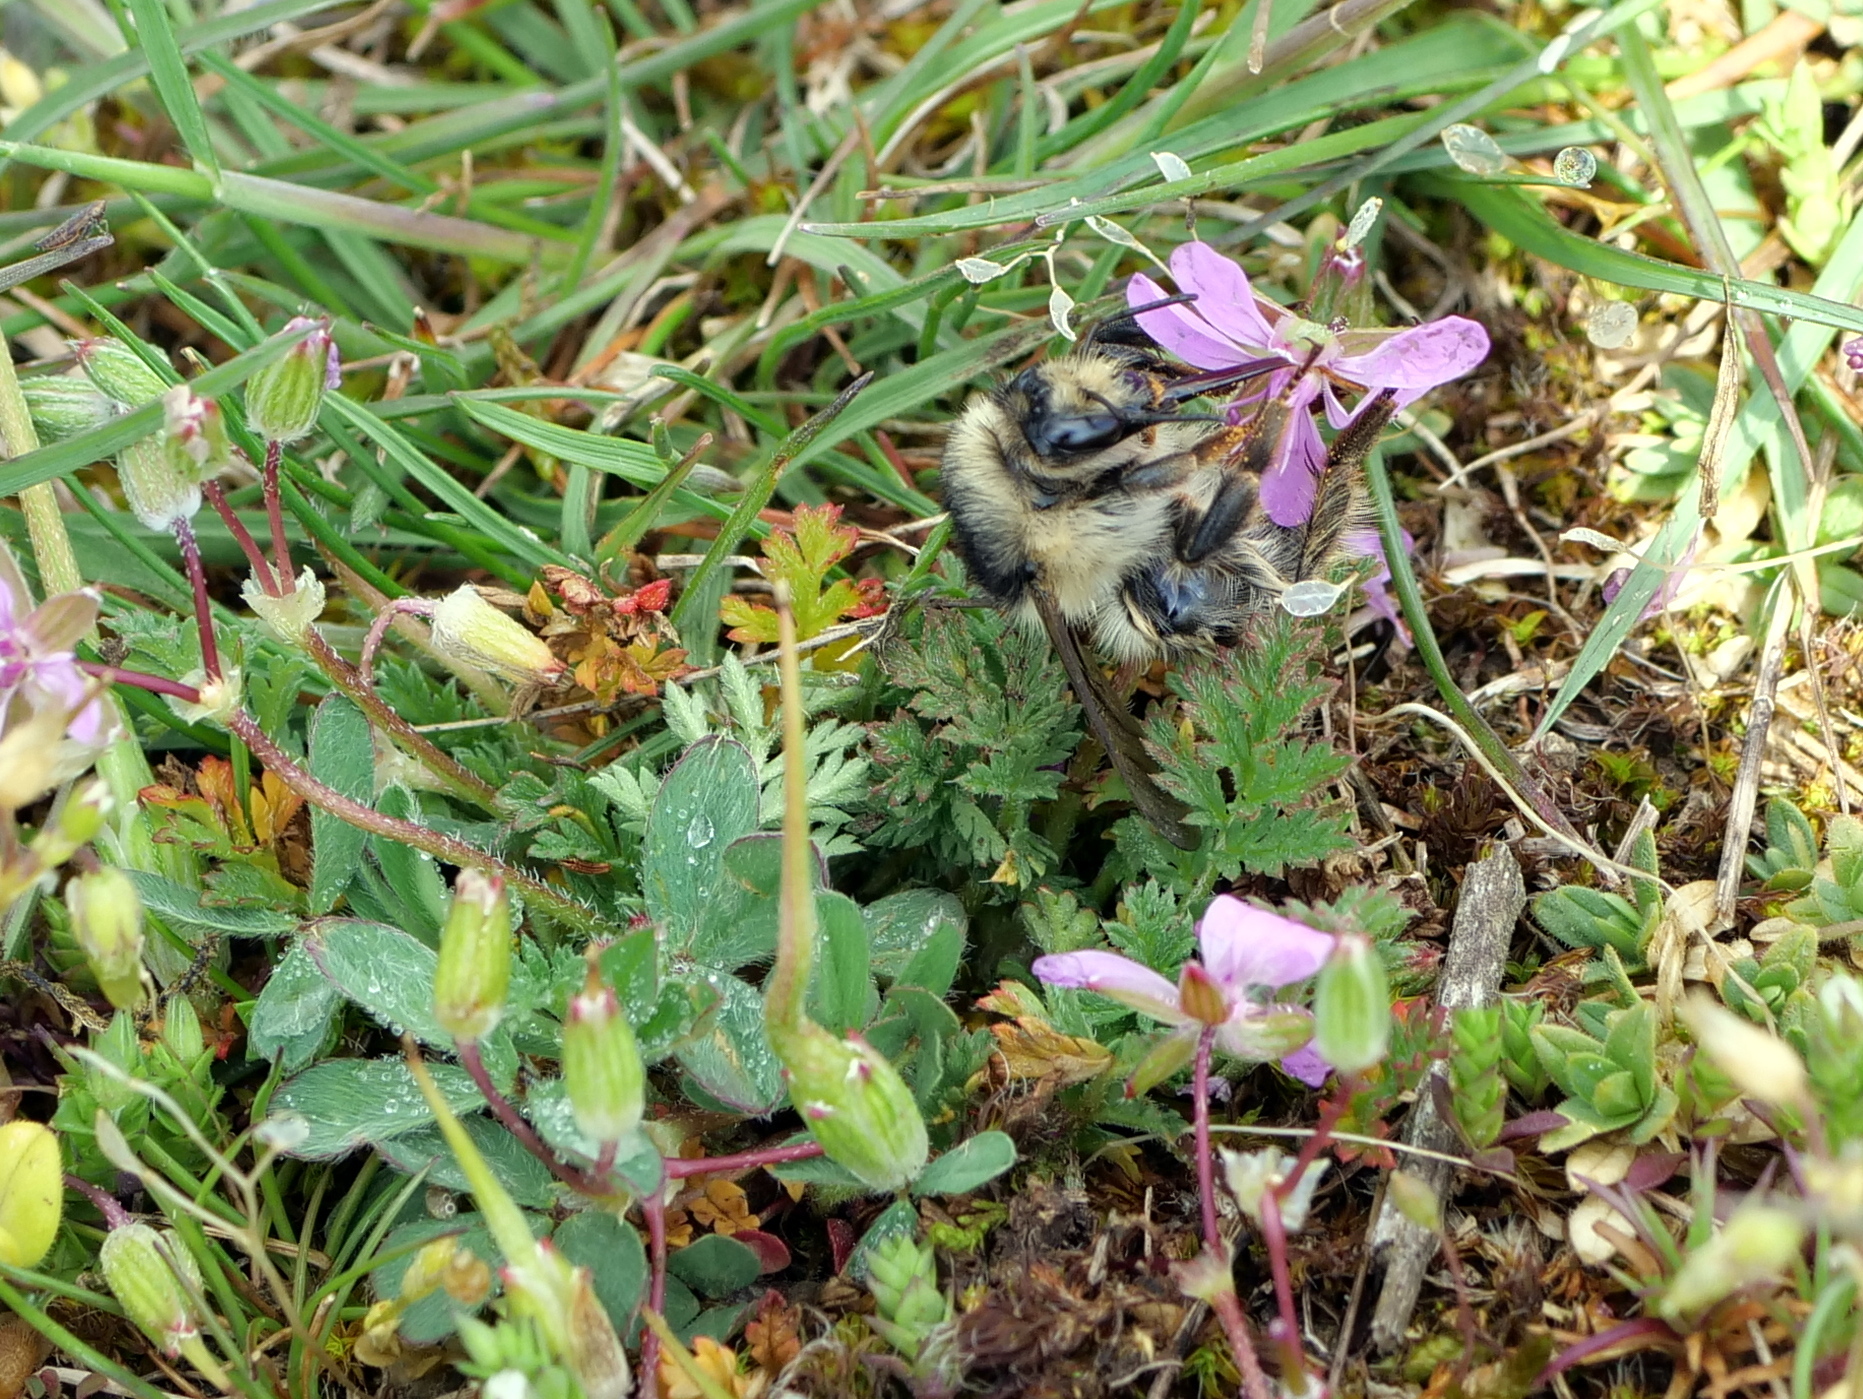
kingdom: Plantae
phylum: Tracheophyta
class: Magnoliopsida
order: Geraniales
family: Geraniaceae
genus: Erodium
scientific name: Erodium cicutarium
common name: Common stork's-bill
